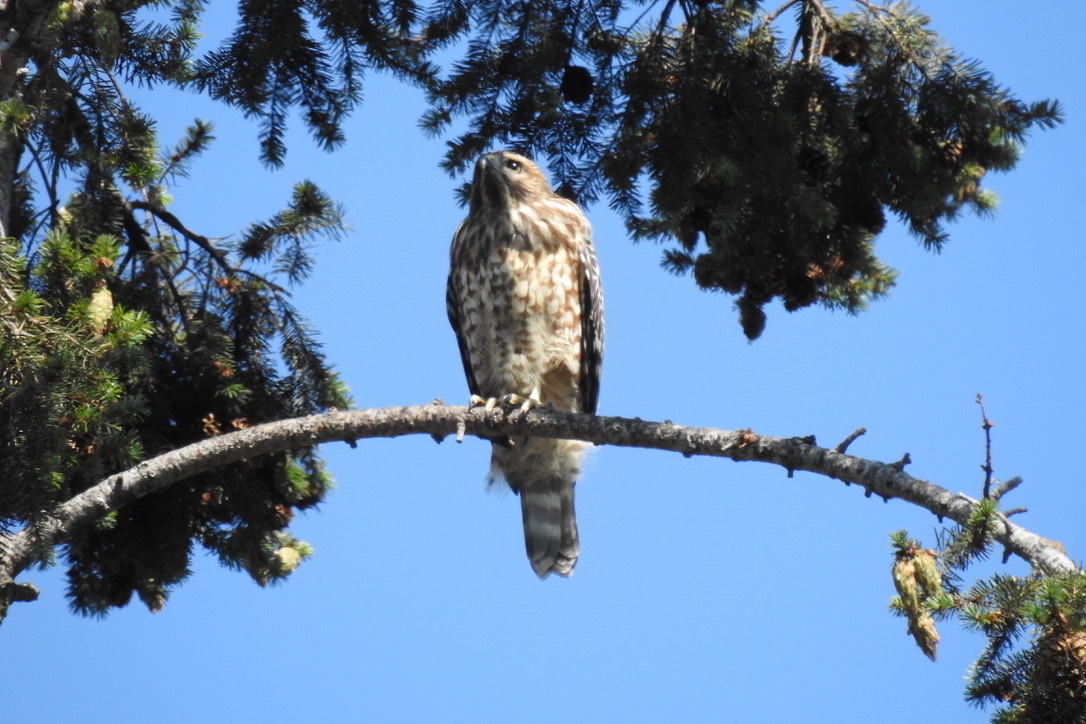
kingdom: Animalia
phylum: Chordata
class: Aves
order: Accipitriformes
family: Accipitridae
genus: Buteo
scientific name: Buteo lineatus
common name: Red-shouldered hawk
